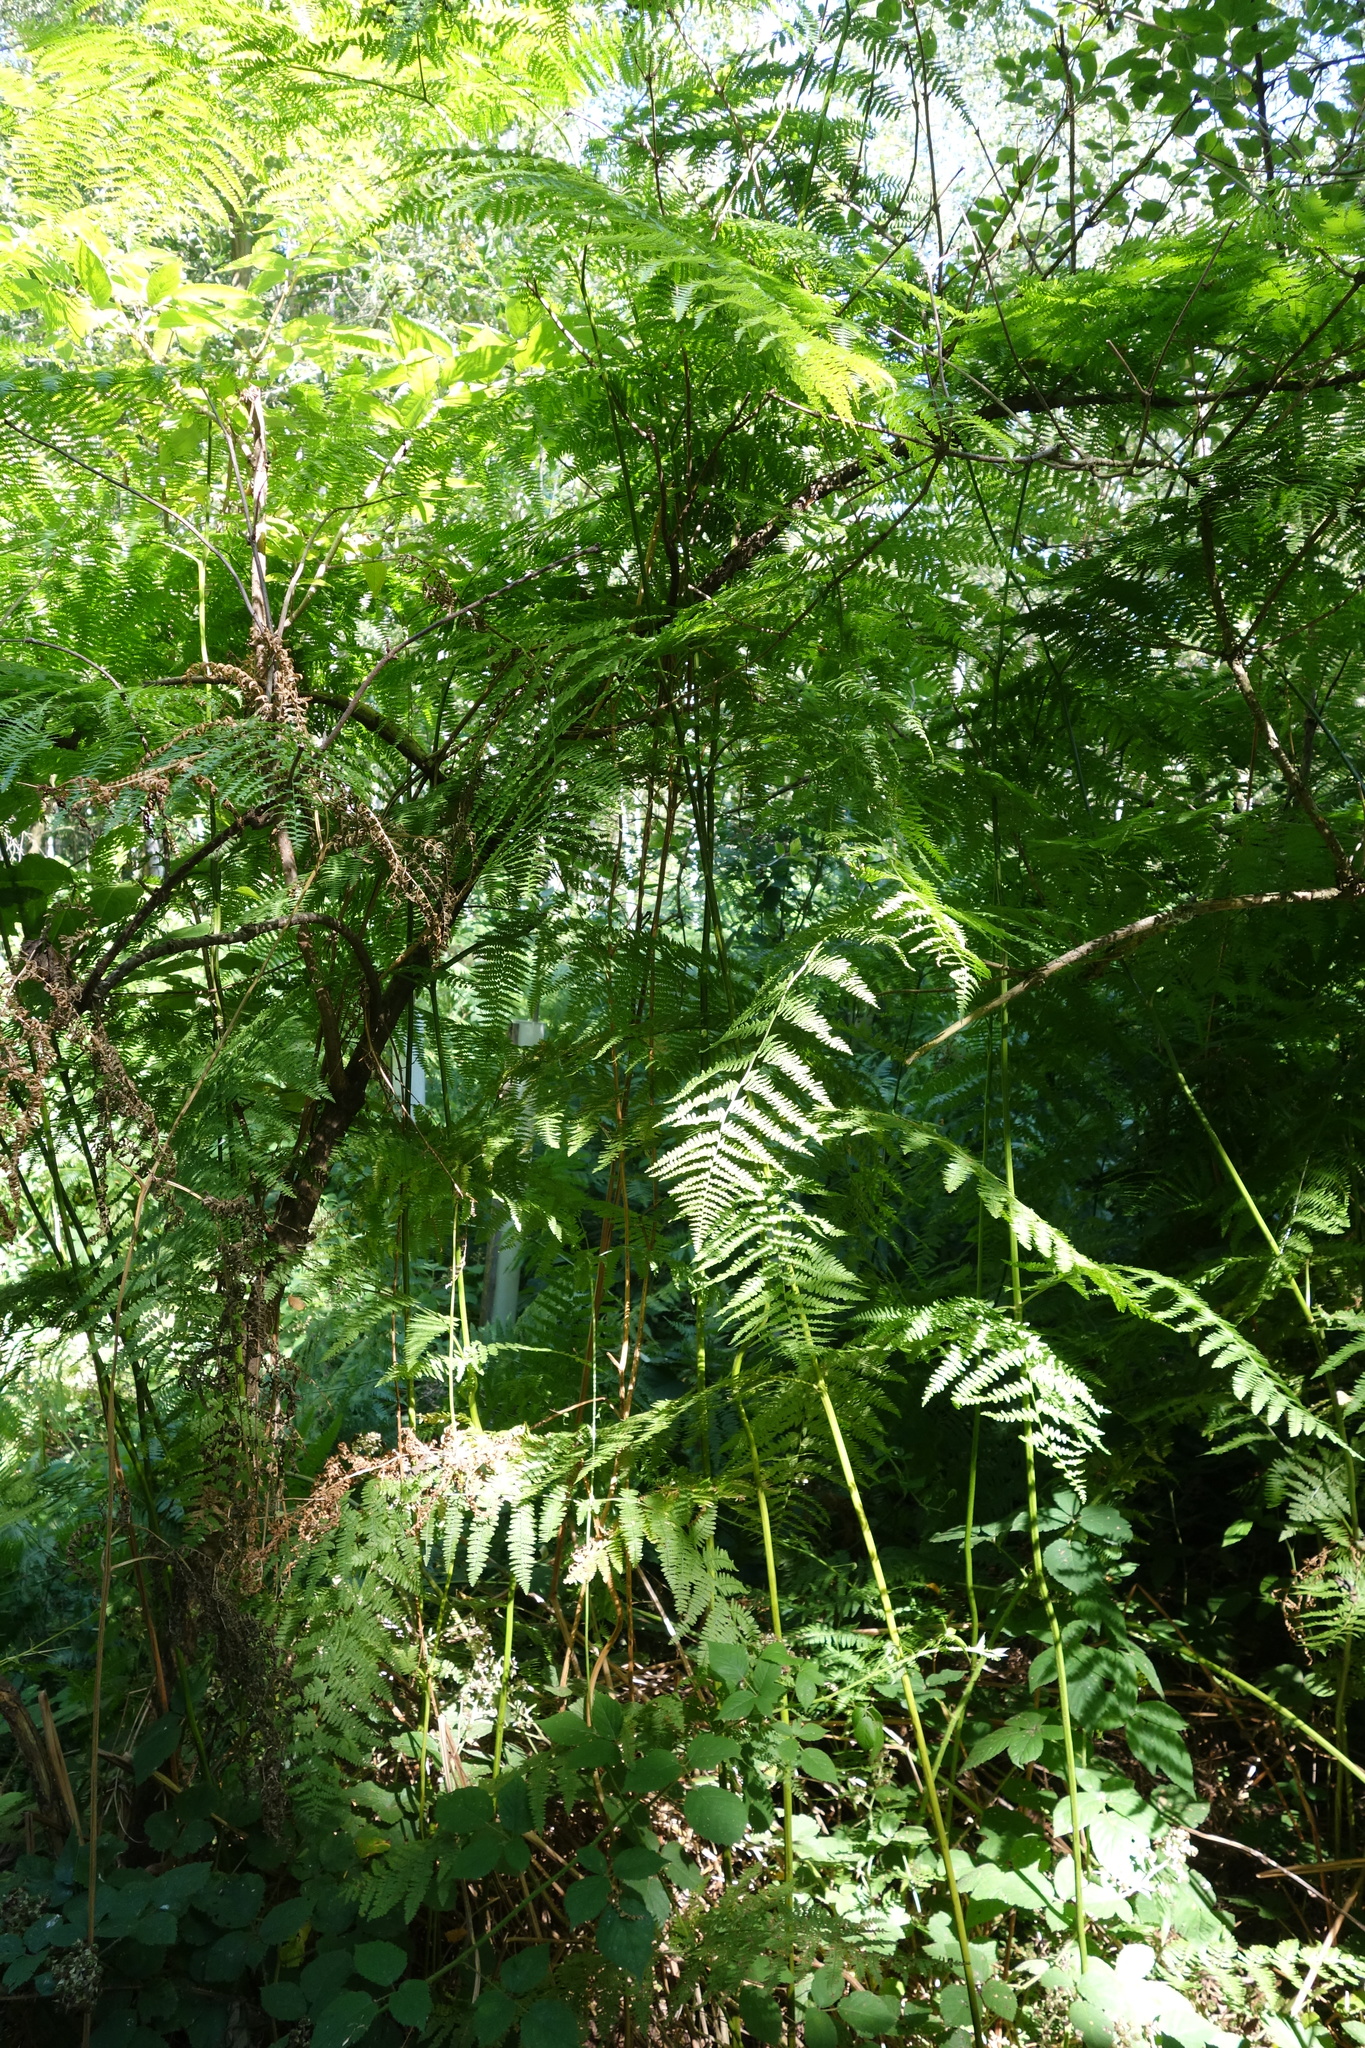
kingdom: Plantae
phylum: Tracheophyta
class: Polypodiopsida
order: Polypodiales
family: Dennstaedtiaceae
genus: Pteridium
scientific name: Pteridium aquilinum
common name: Bracken
